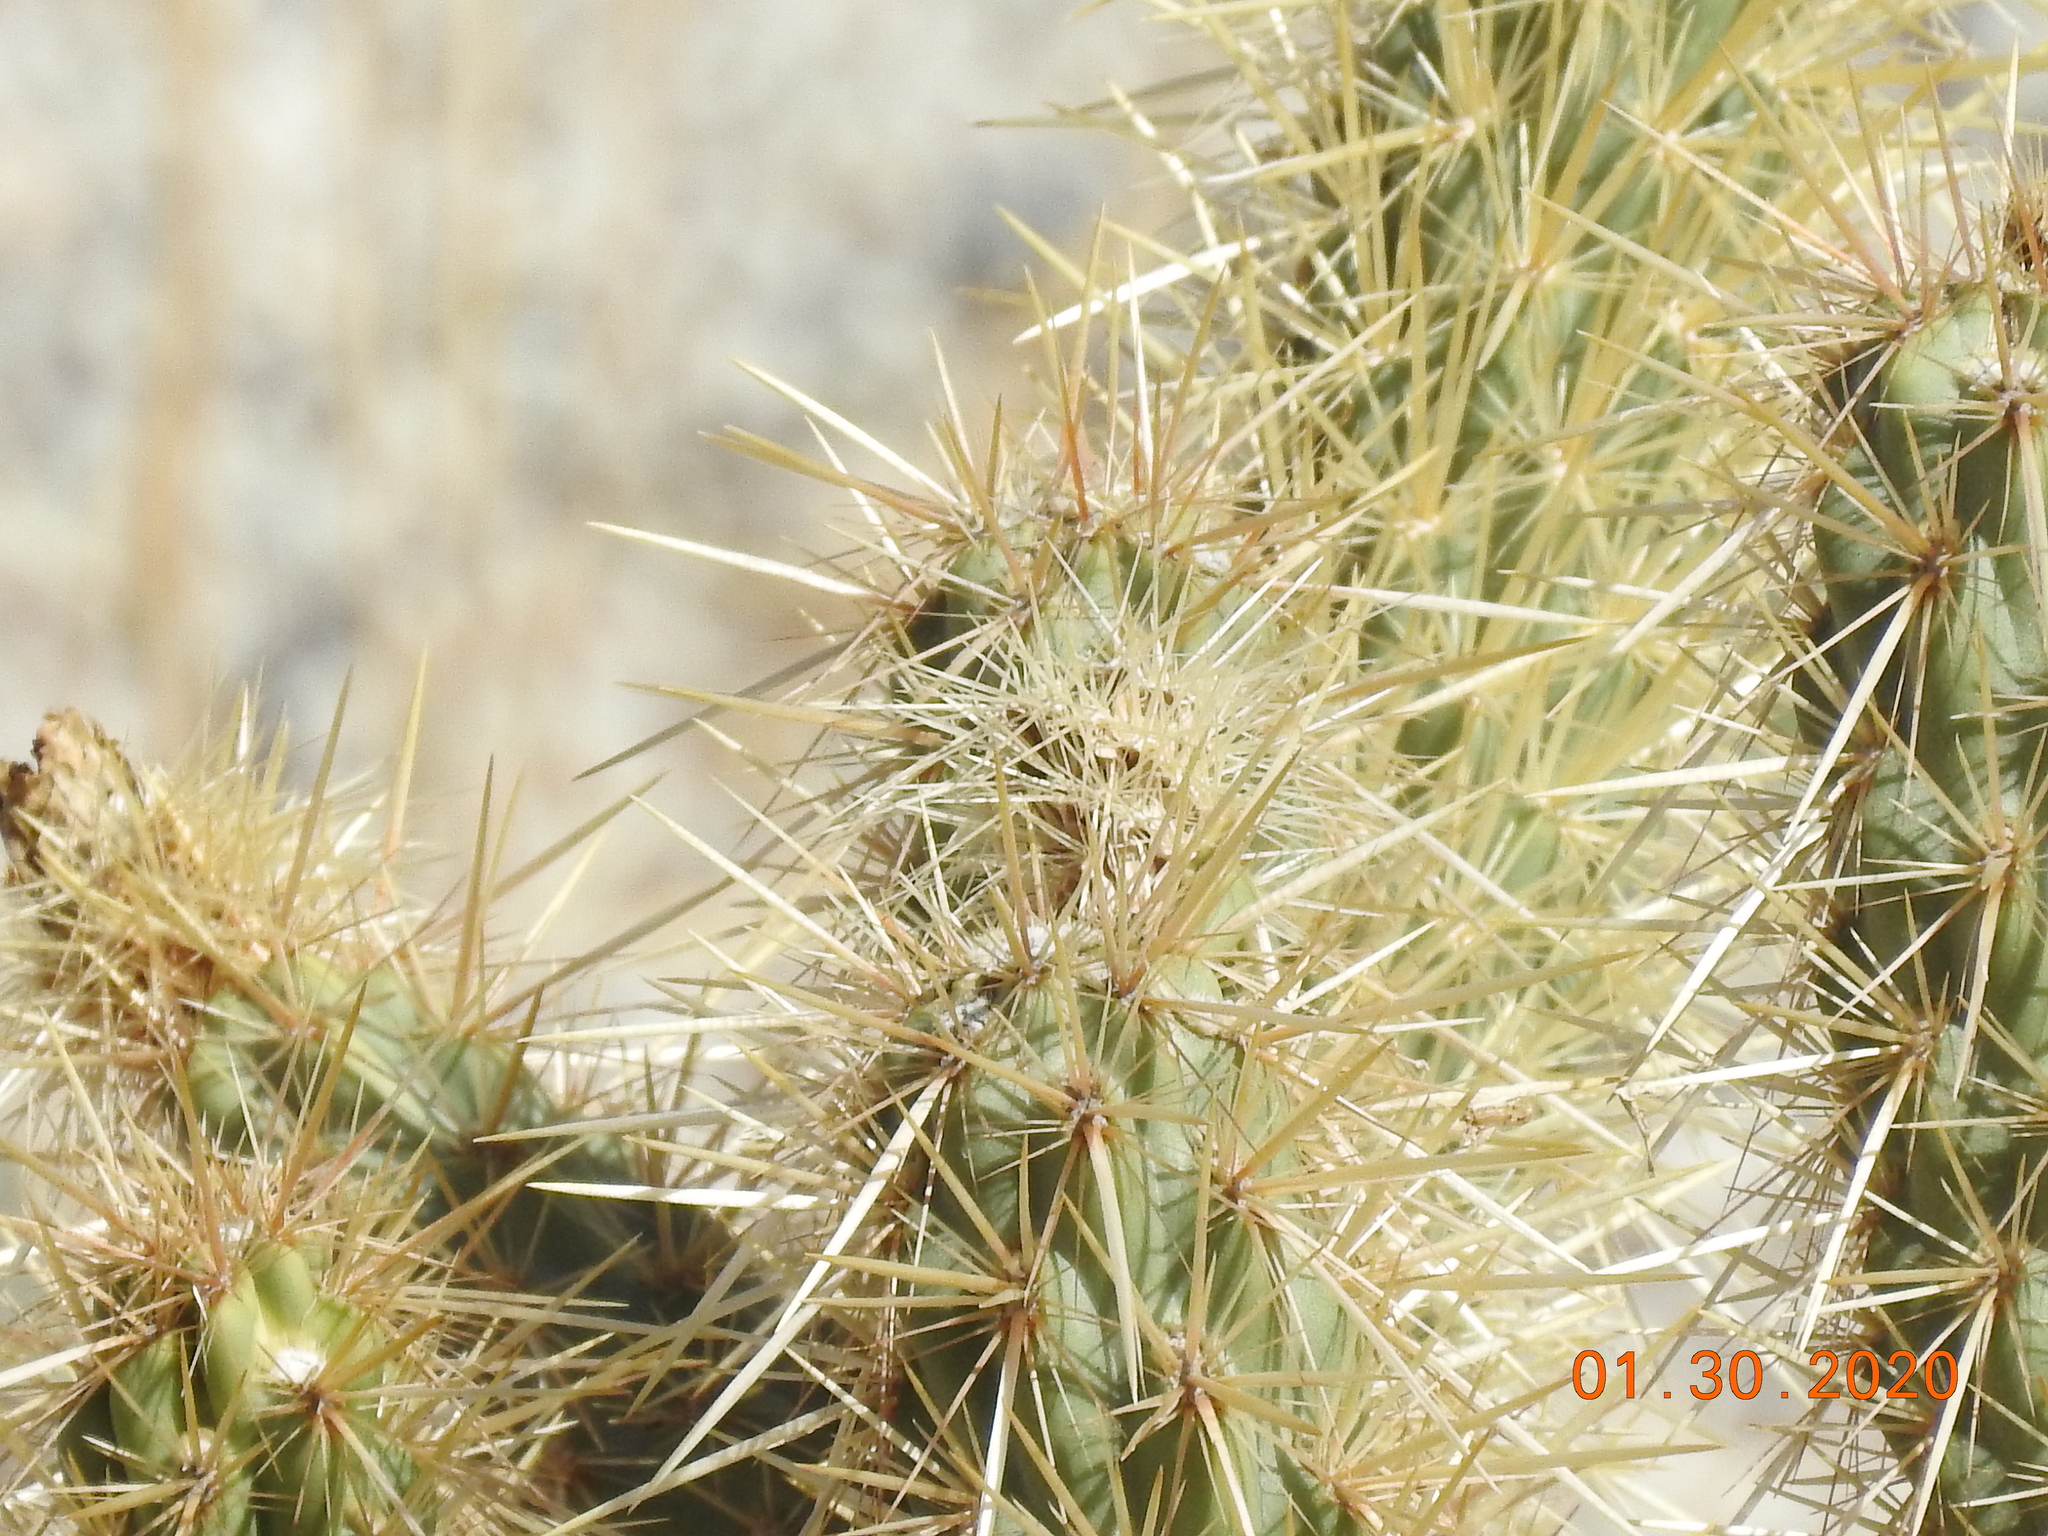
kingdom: Plantae
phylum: Tracheophyta
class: Magnoliopsida
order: Caryophyllales
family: Cactaceae
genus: Cylindropuntia
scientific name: Cylindropuntia ganderi
